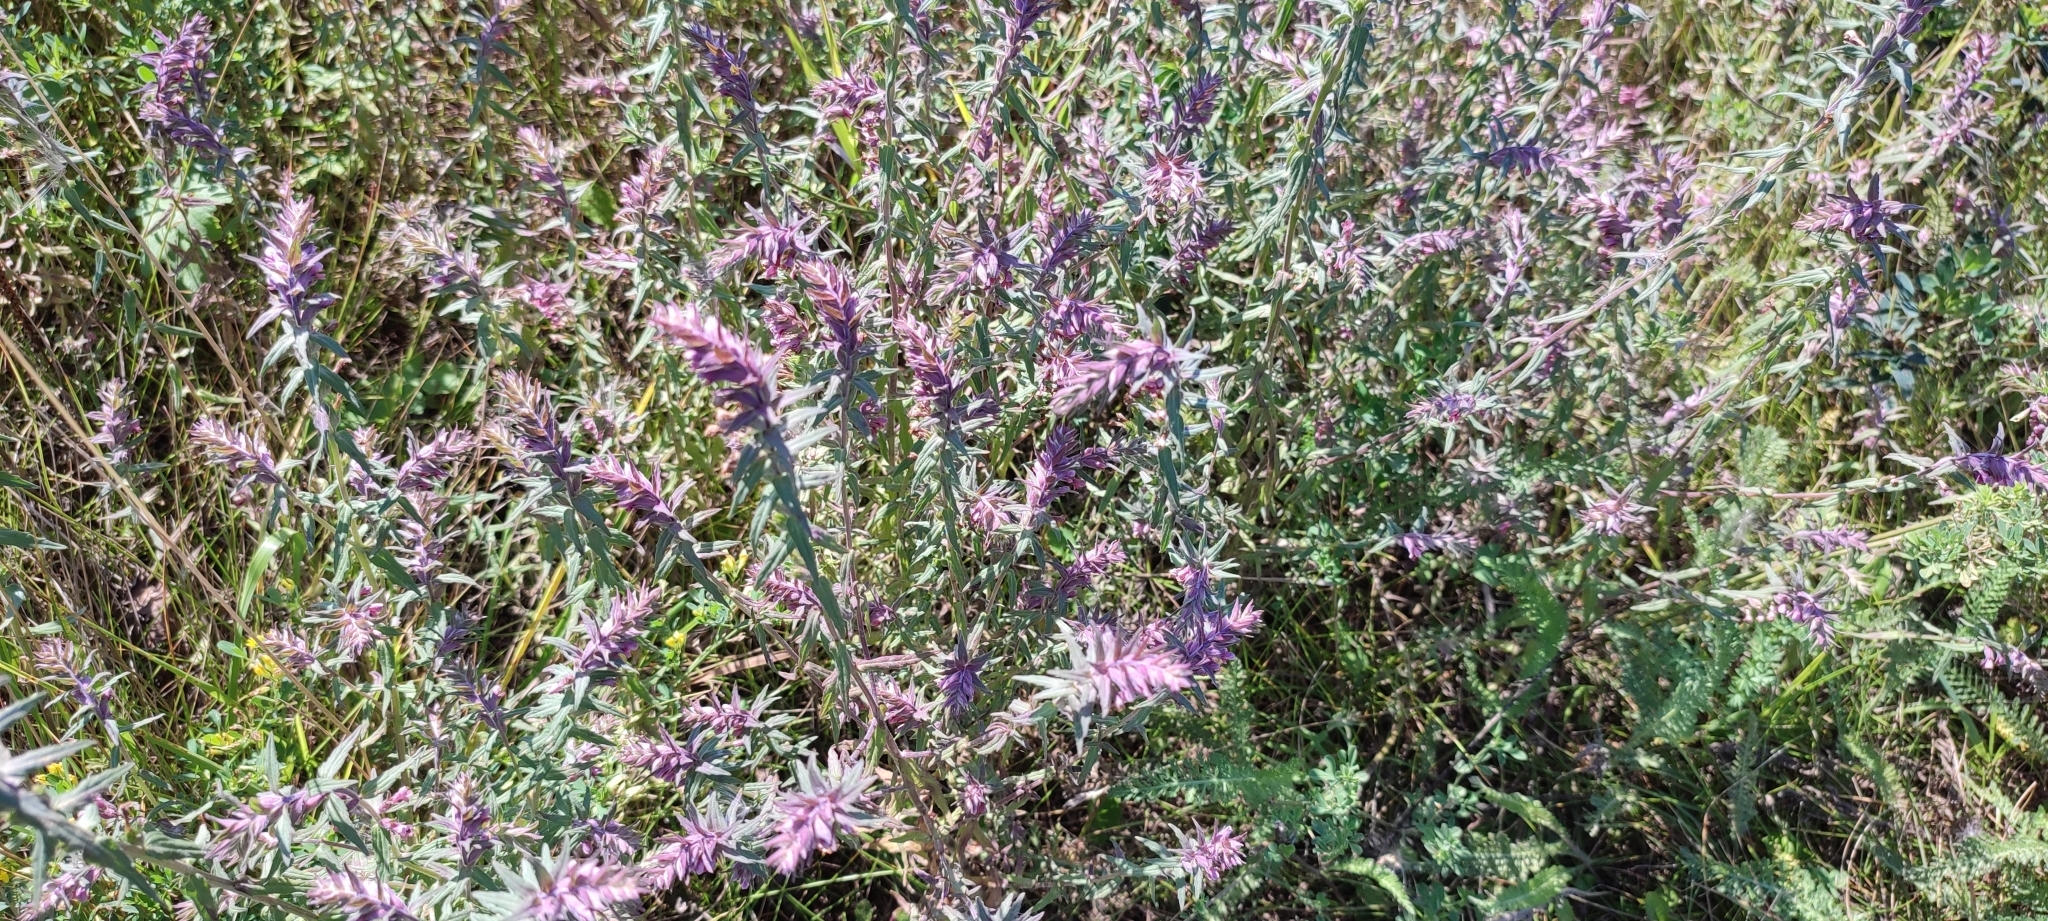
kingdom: Plantae
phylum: Tracheophyta
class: Magnoliopsida
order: Lamiales
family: Orobanchaceae
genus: Odontites
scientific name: Odontites vulgaris
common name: Broomrape
